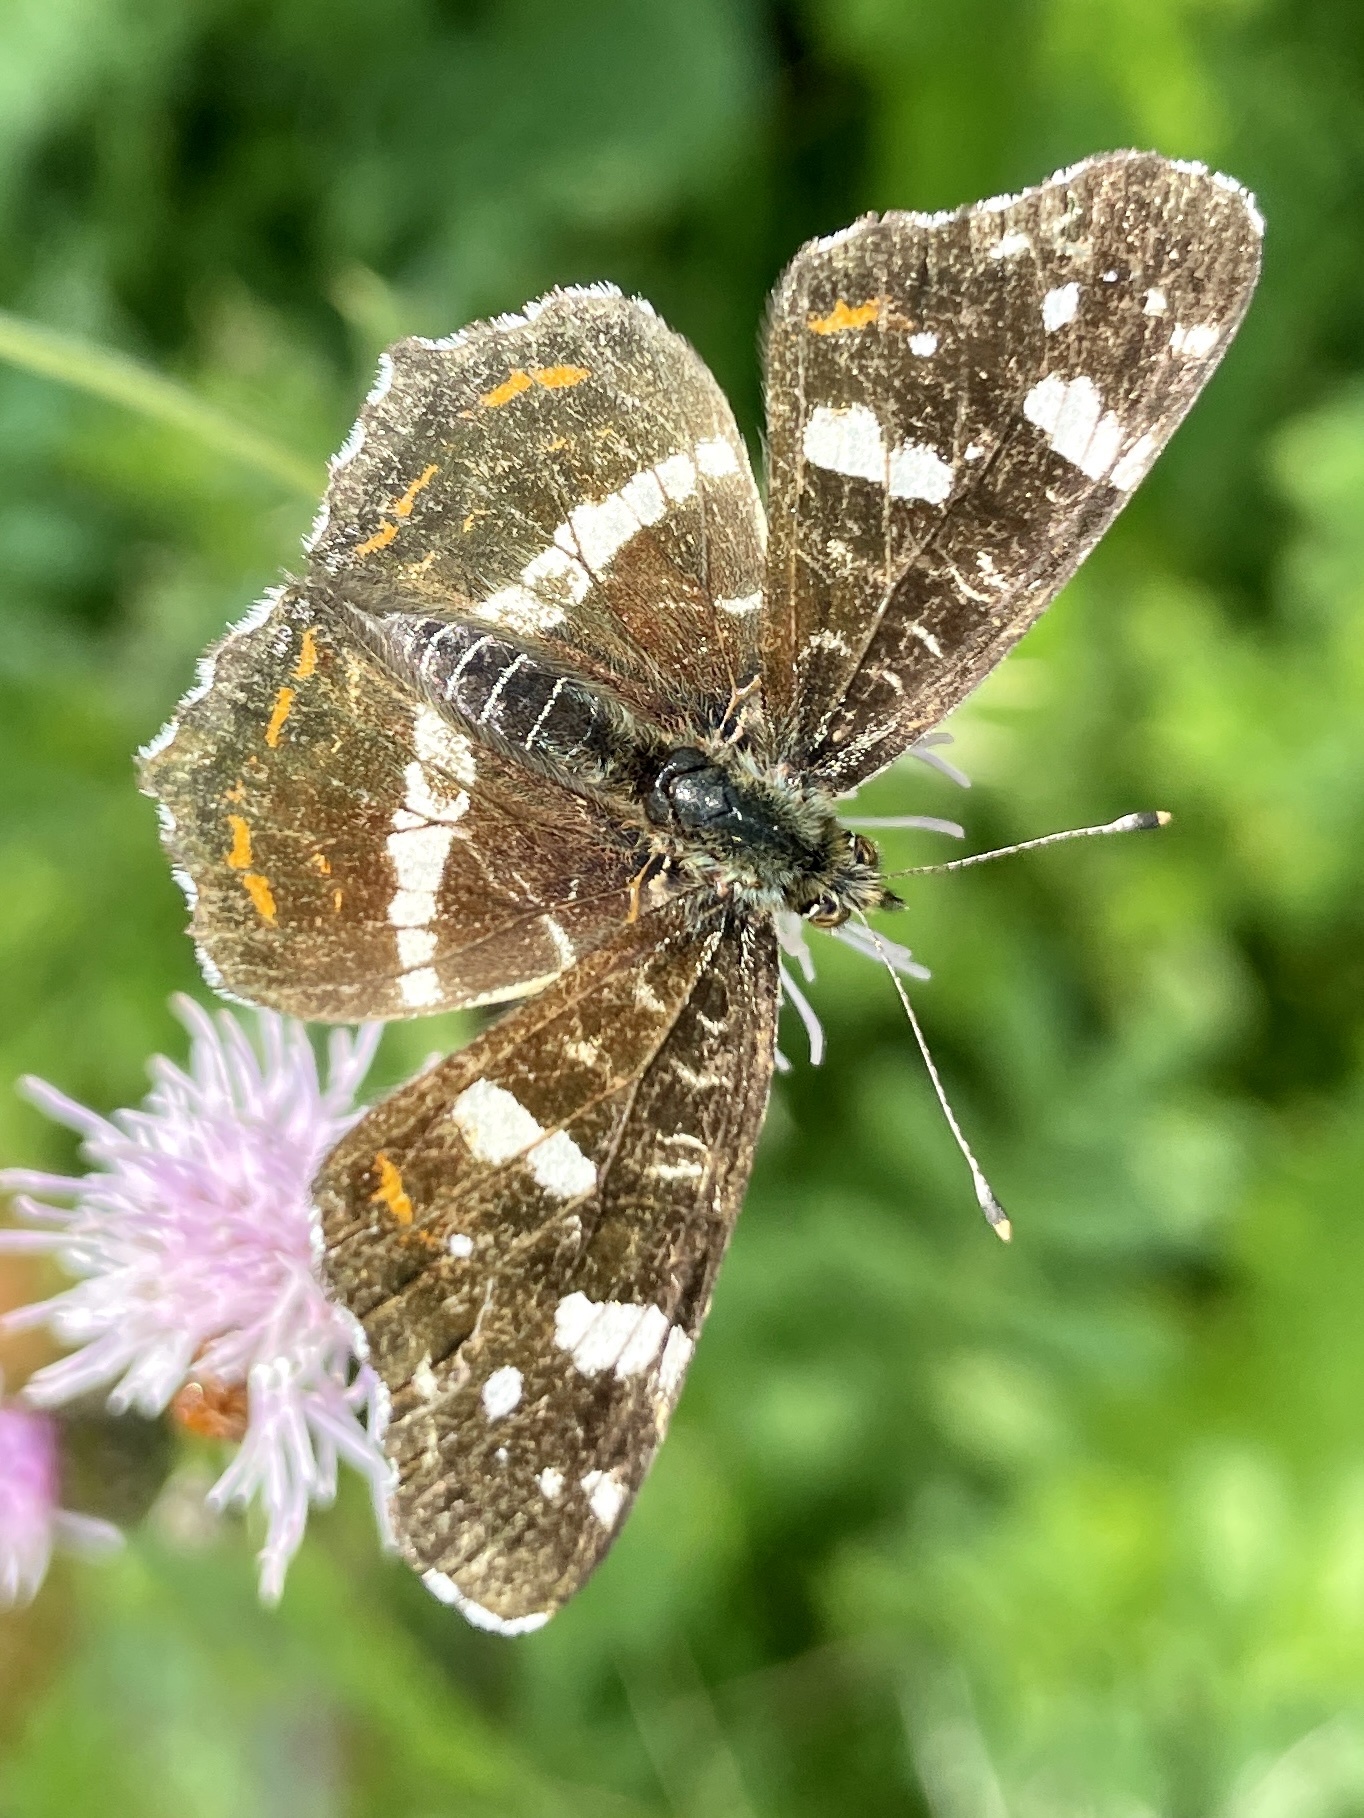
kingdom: Animalia
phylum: Arthropoda
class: Insecta
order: Lepidoptera
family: Nymphalidae
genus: Araschnia
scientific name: Araschnia levana
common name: Map butterfly
